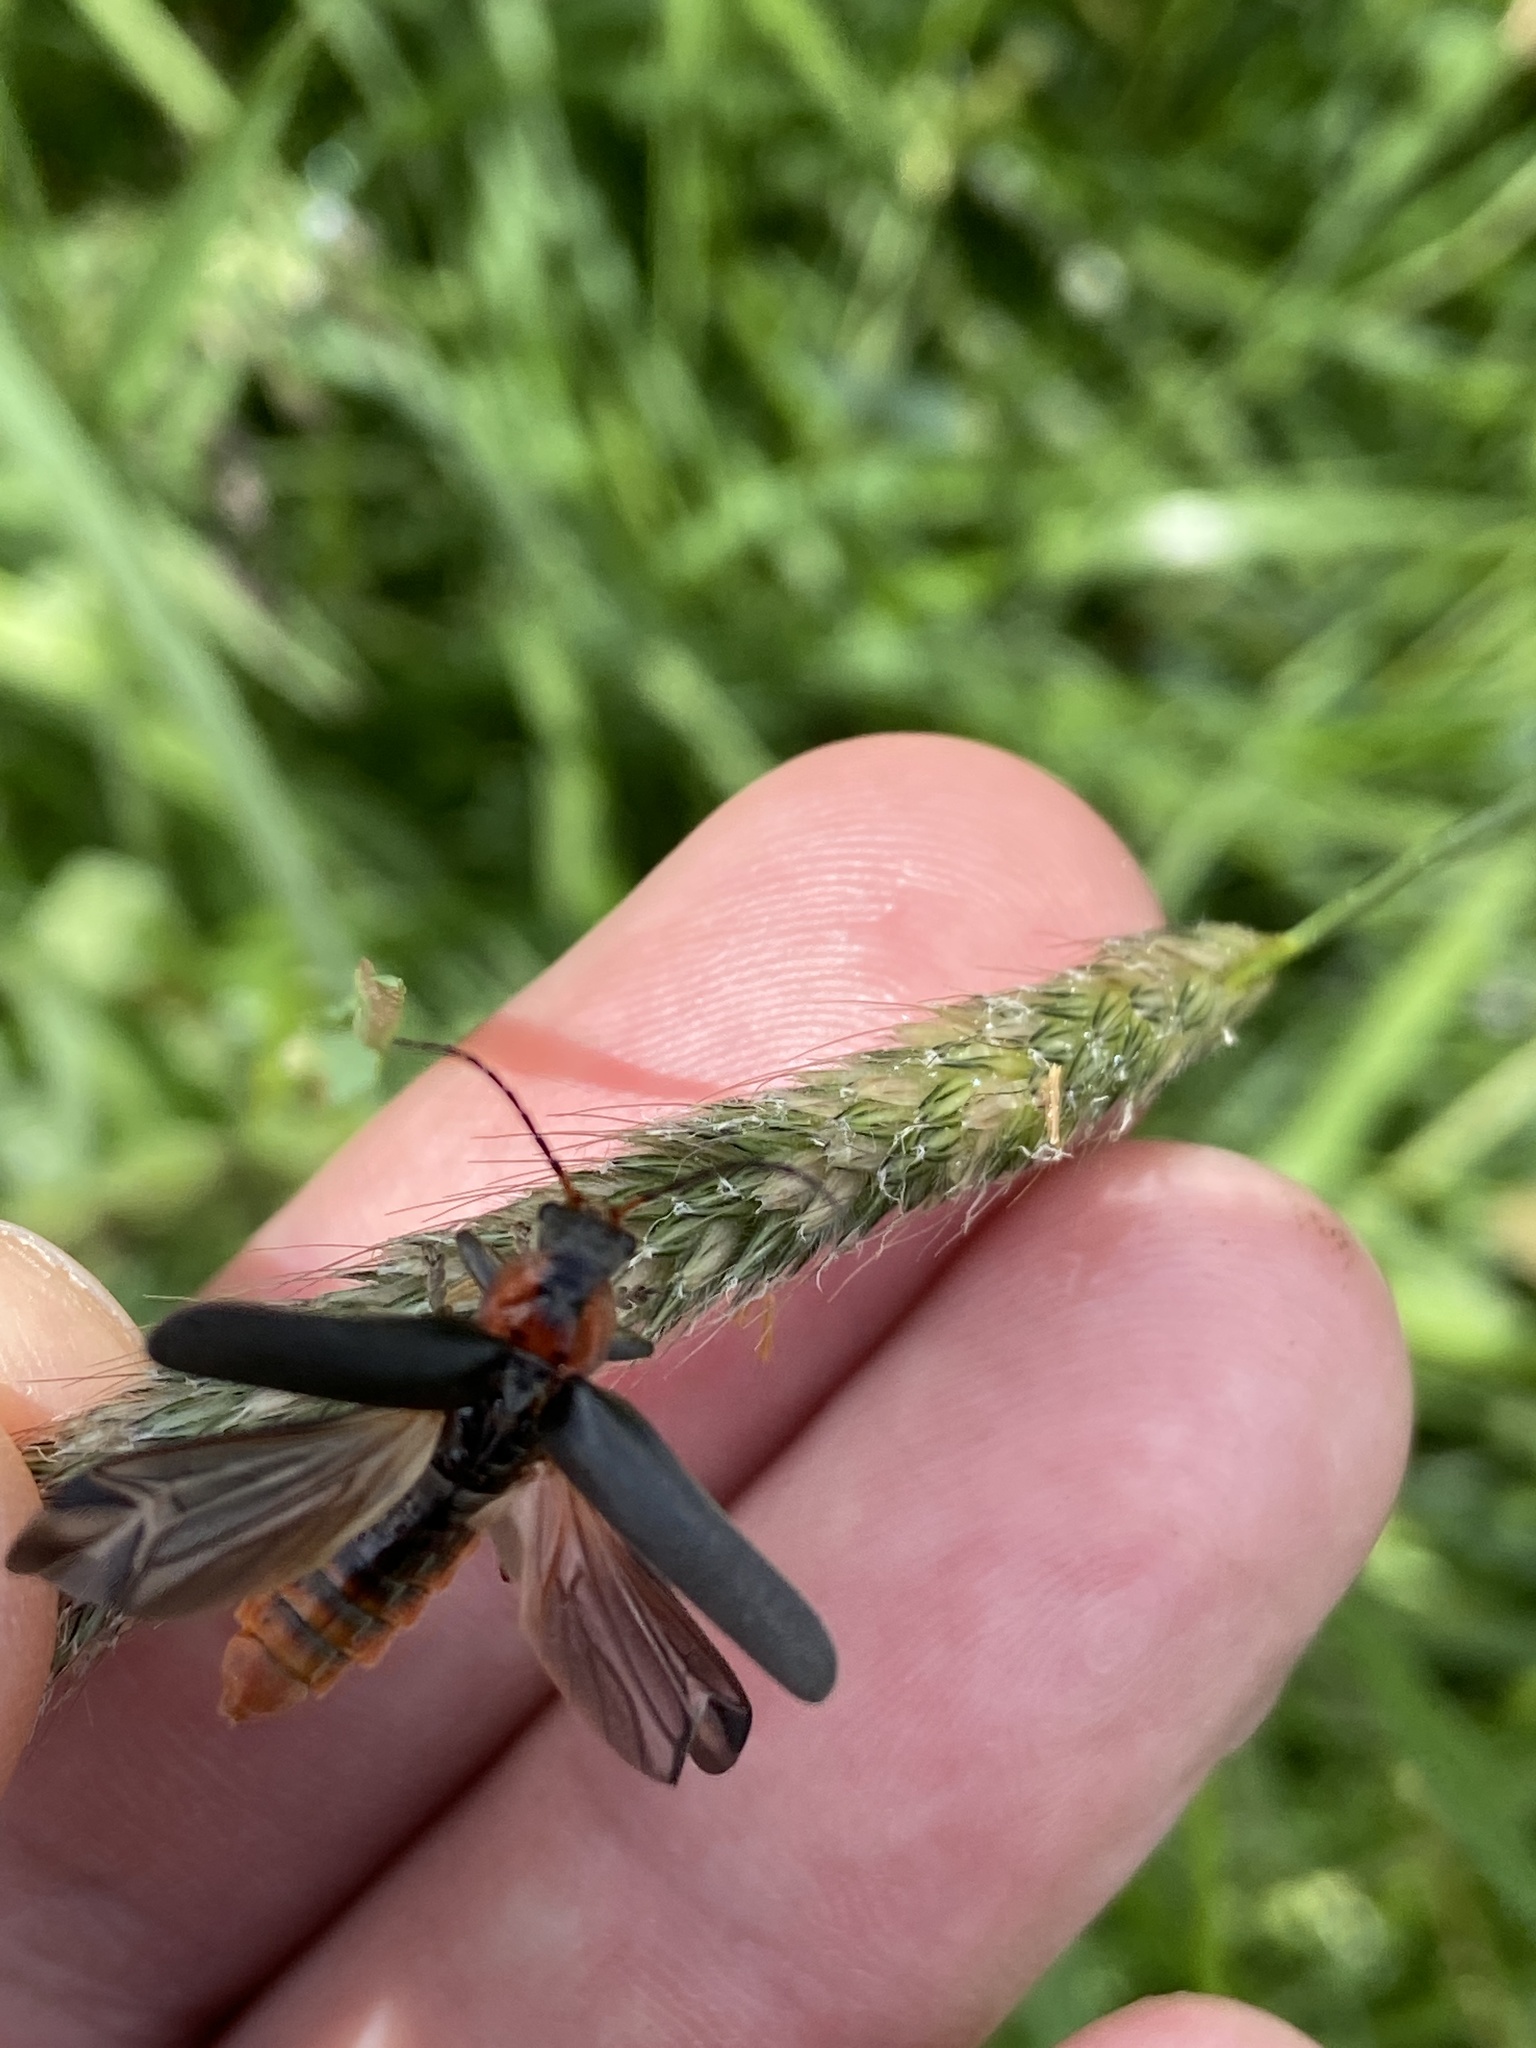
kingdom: Animalia
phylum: Arthropoda
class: Insecta
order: Coleoptera
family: Cantharidae
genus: Cantharis
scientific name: Cantharis fusca
